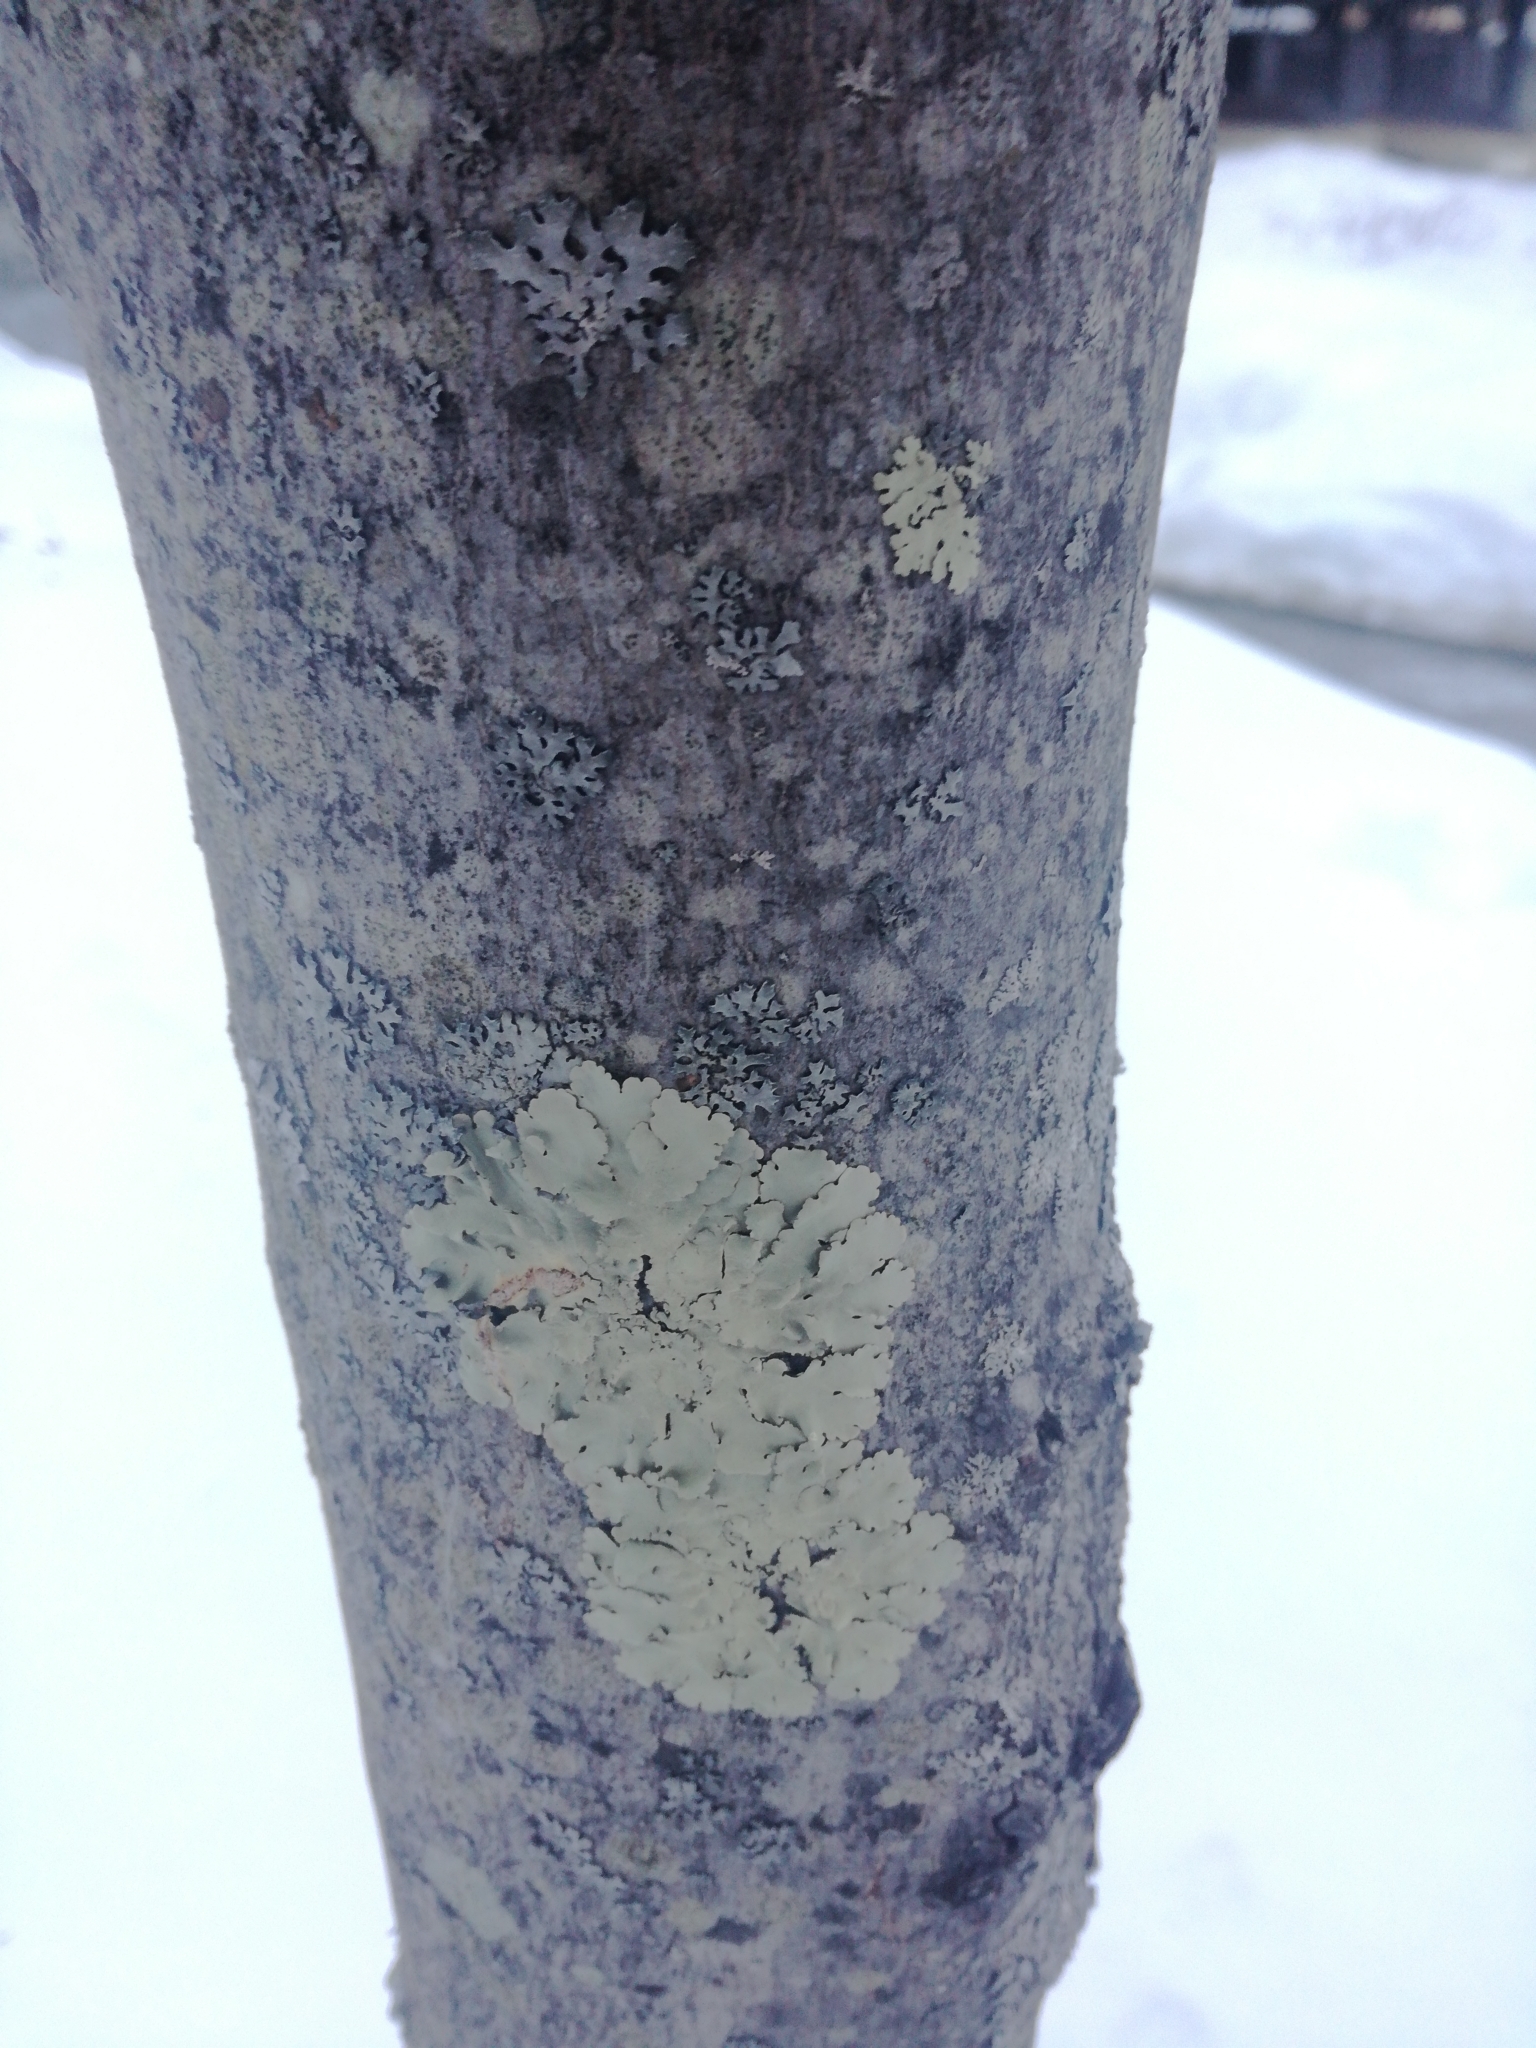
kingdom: Fungi
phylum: Ascomycota
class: Lecanoromycetes
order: Lecanorales
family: Parmeliaceae
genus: Flavoparmelia
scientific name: Flavoparmelia caperata
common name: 40-mile per hour lichen
